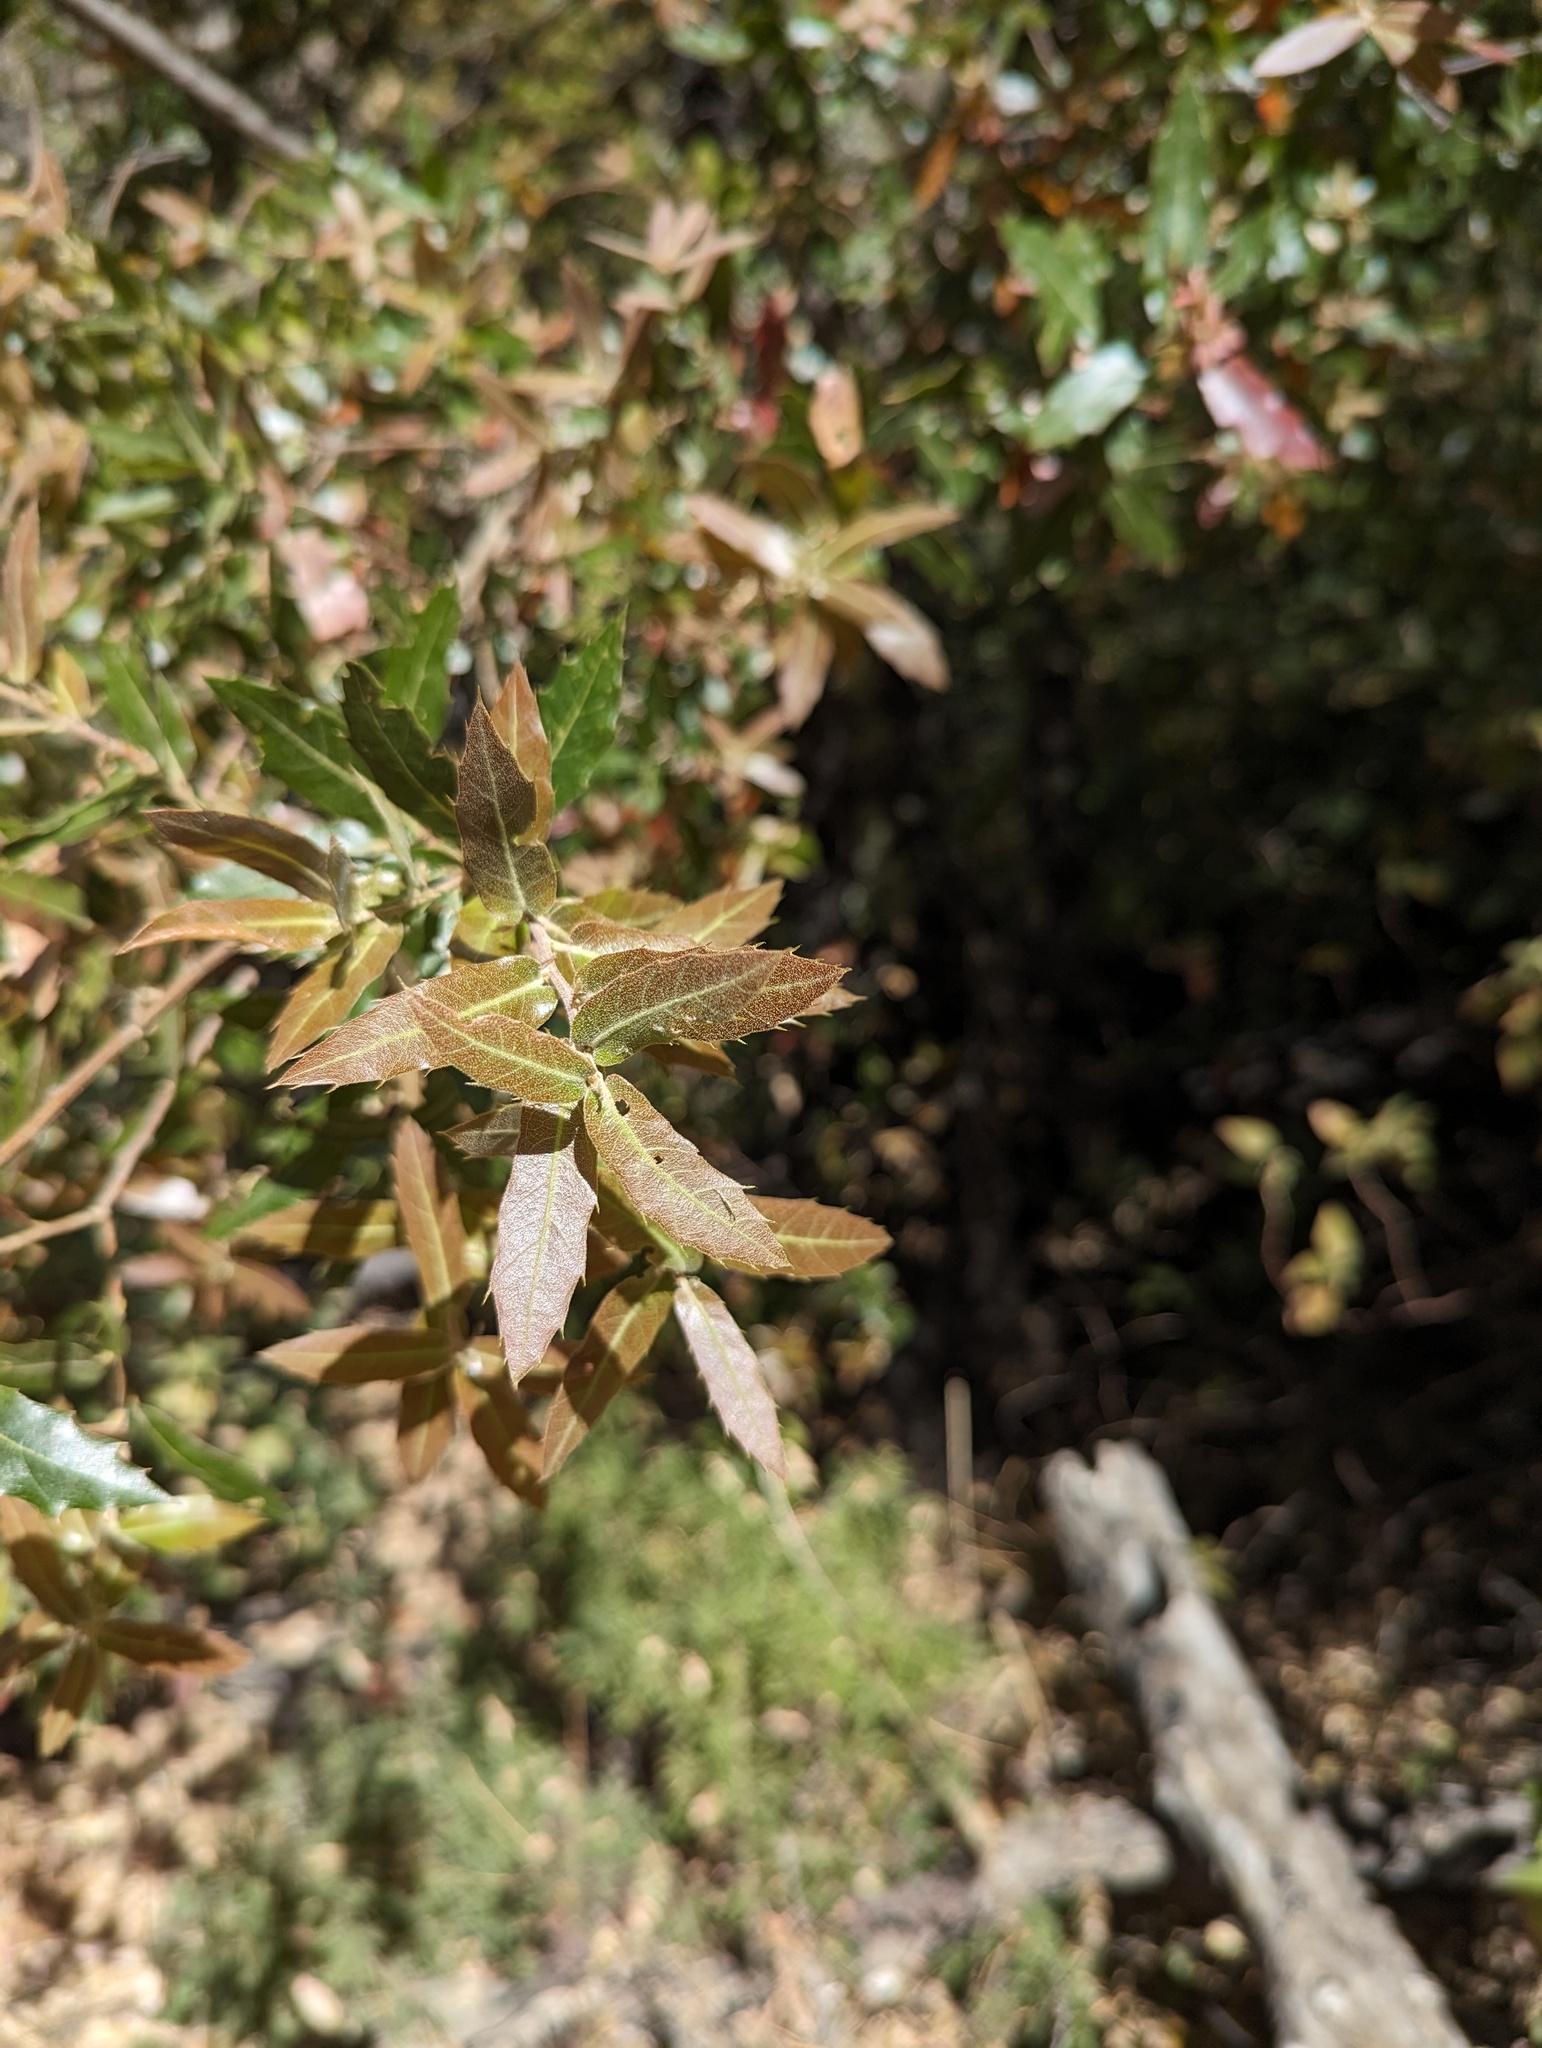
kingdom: Plantae
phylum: Tracheophyta
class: Magnoliopsida
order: Fagales
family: Fagaceae
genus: Quercus
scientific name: Quercus devia
